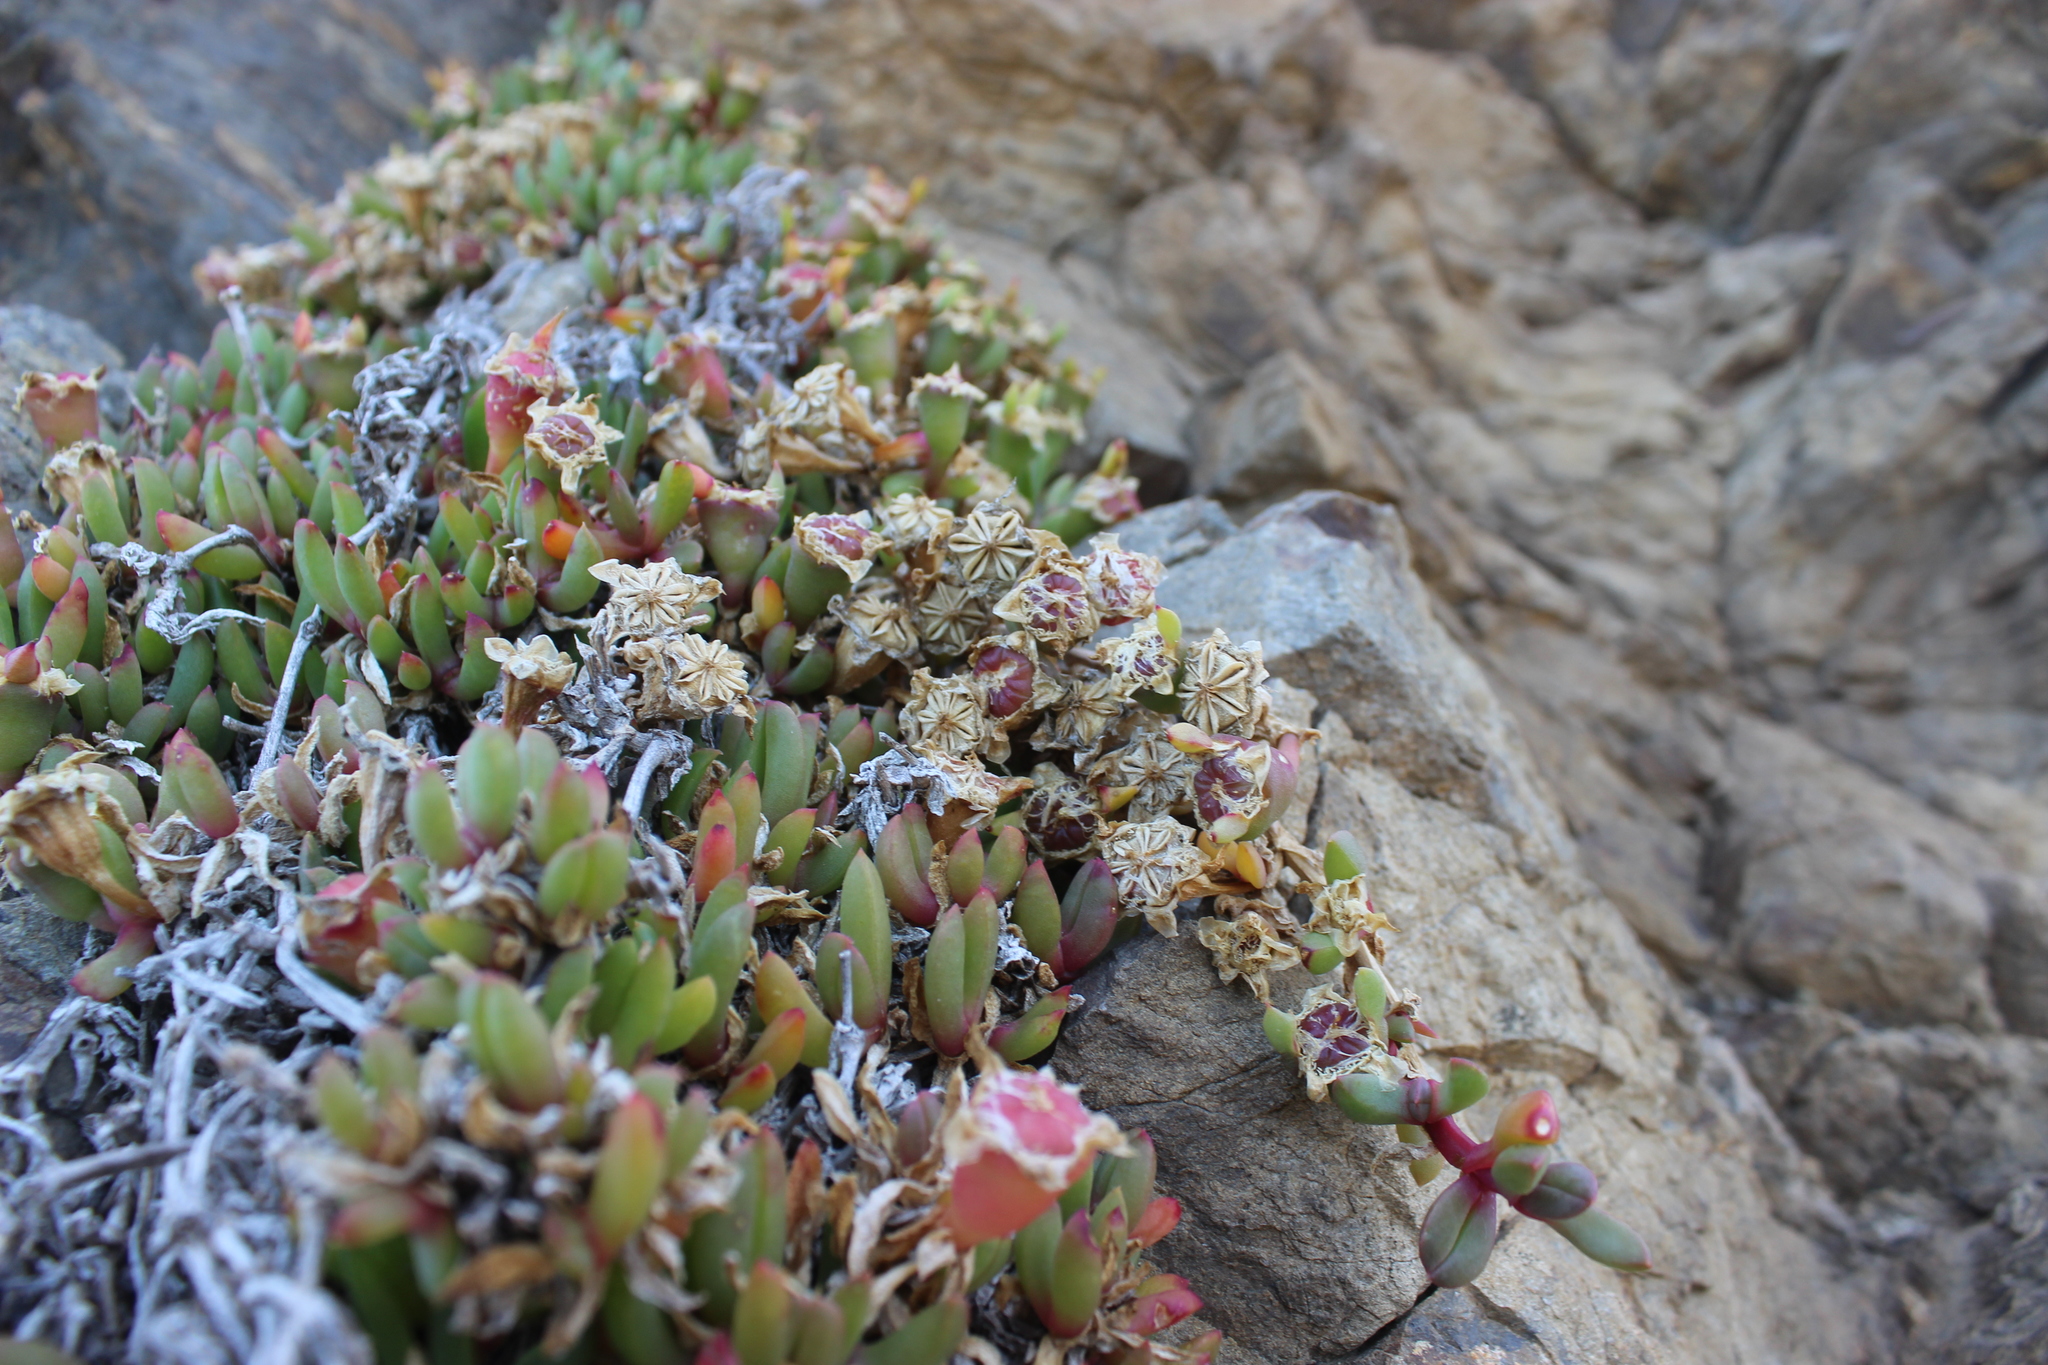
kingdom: Plantae
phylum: Tracheophyta
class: Magnoliopsida
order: Caryophyllales
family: Aizoaceae
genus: Disphyma
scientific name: Disphyma australe
